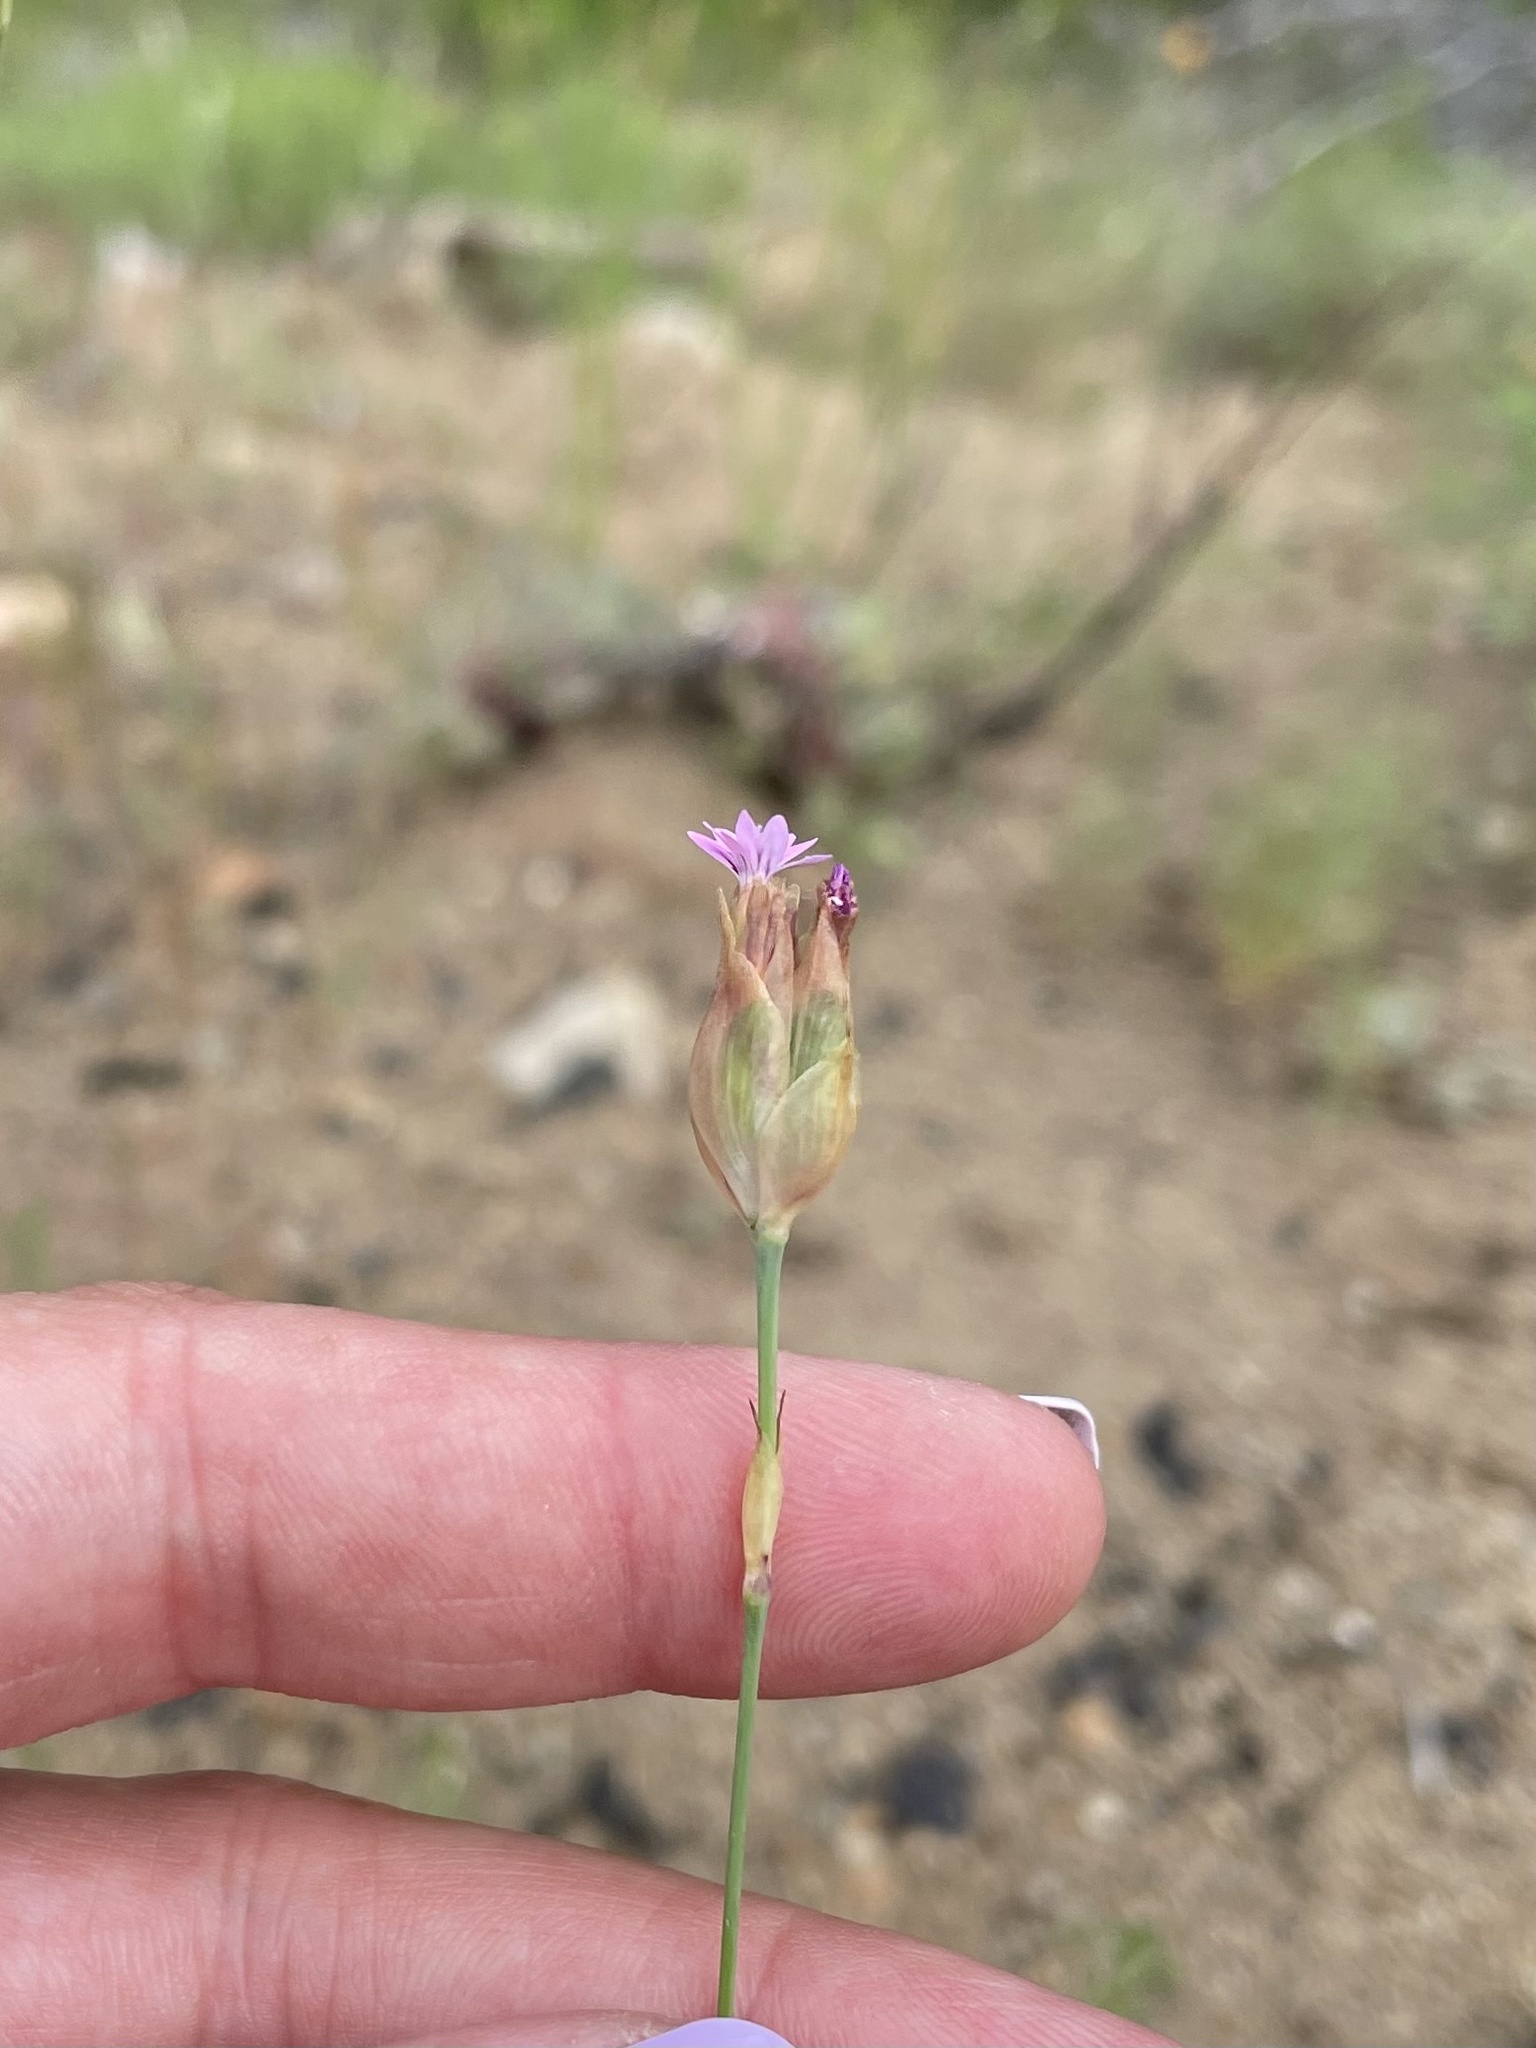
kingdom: Plantae
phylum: Tracheophyta
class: Magnoliopsida
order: Caryophyllales
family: Caryophyllaceae
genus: Petrorhagia
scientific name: Petrorhagia dubia
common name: Hairypink
